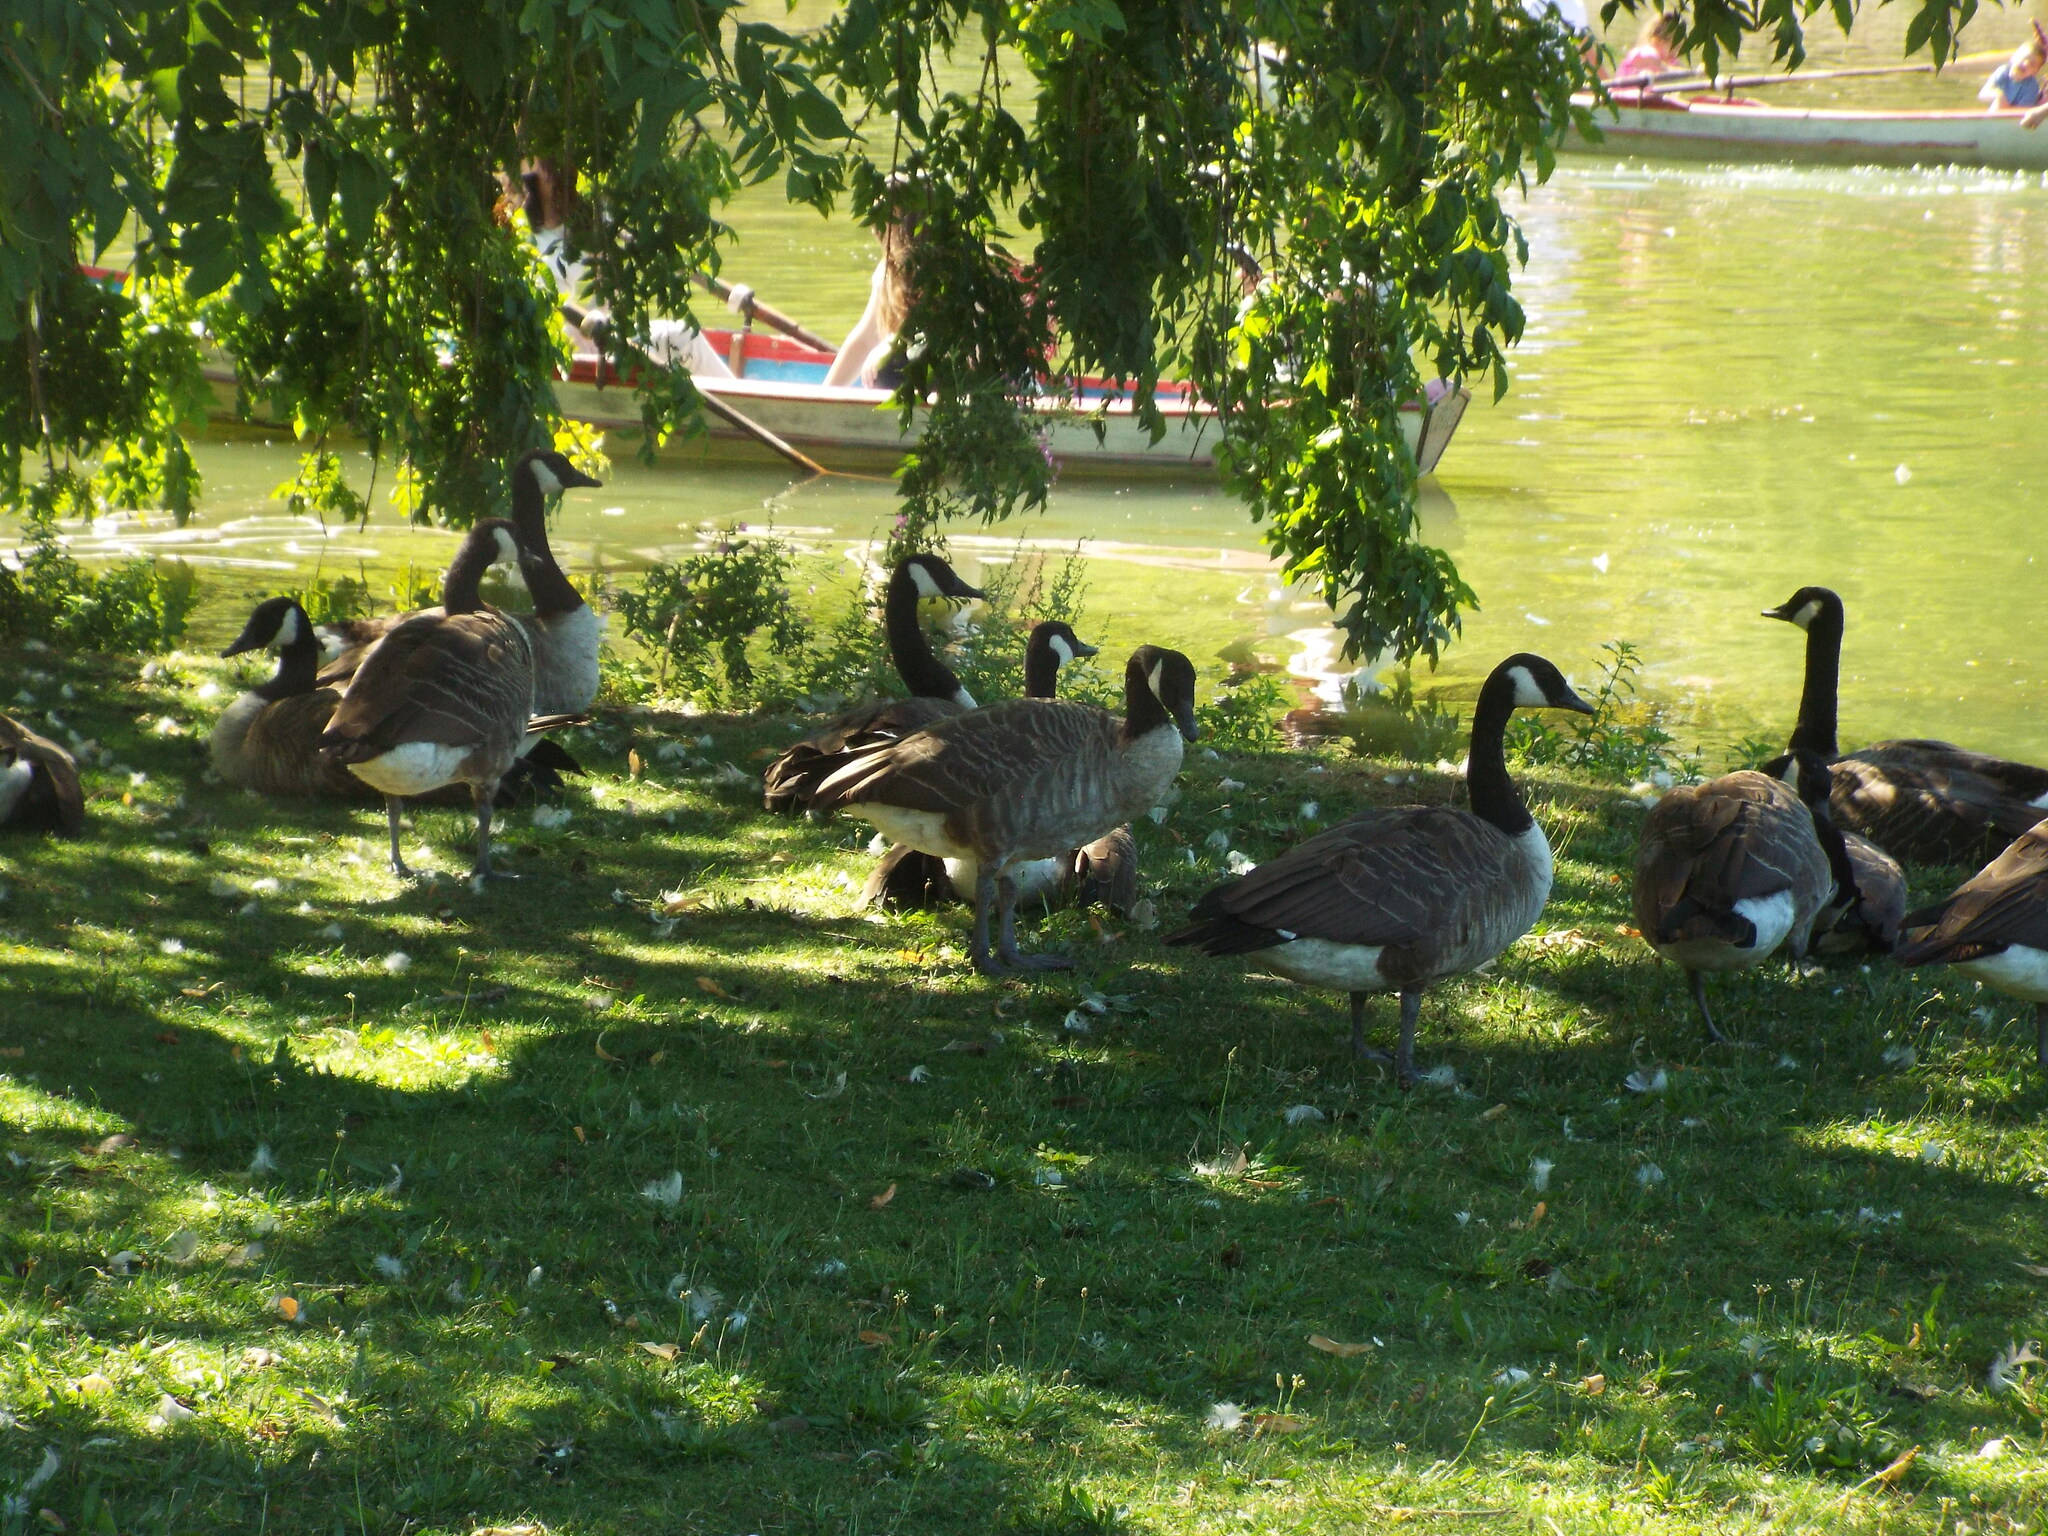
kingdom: Animalia
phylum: Chordata
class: Aves
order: Anseriformes
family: Anatidae
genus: Branta
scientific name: Branta canadensis
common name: Canada goose
